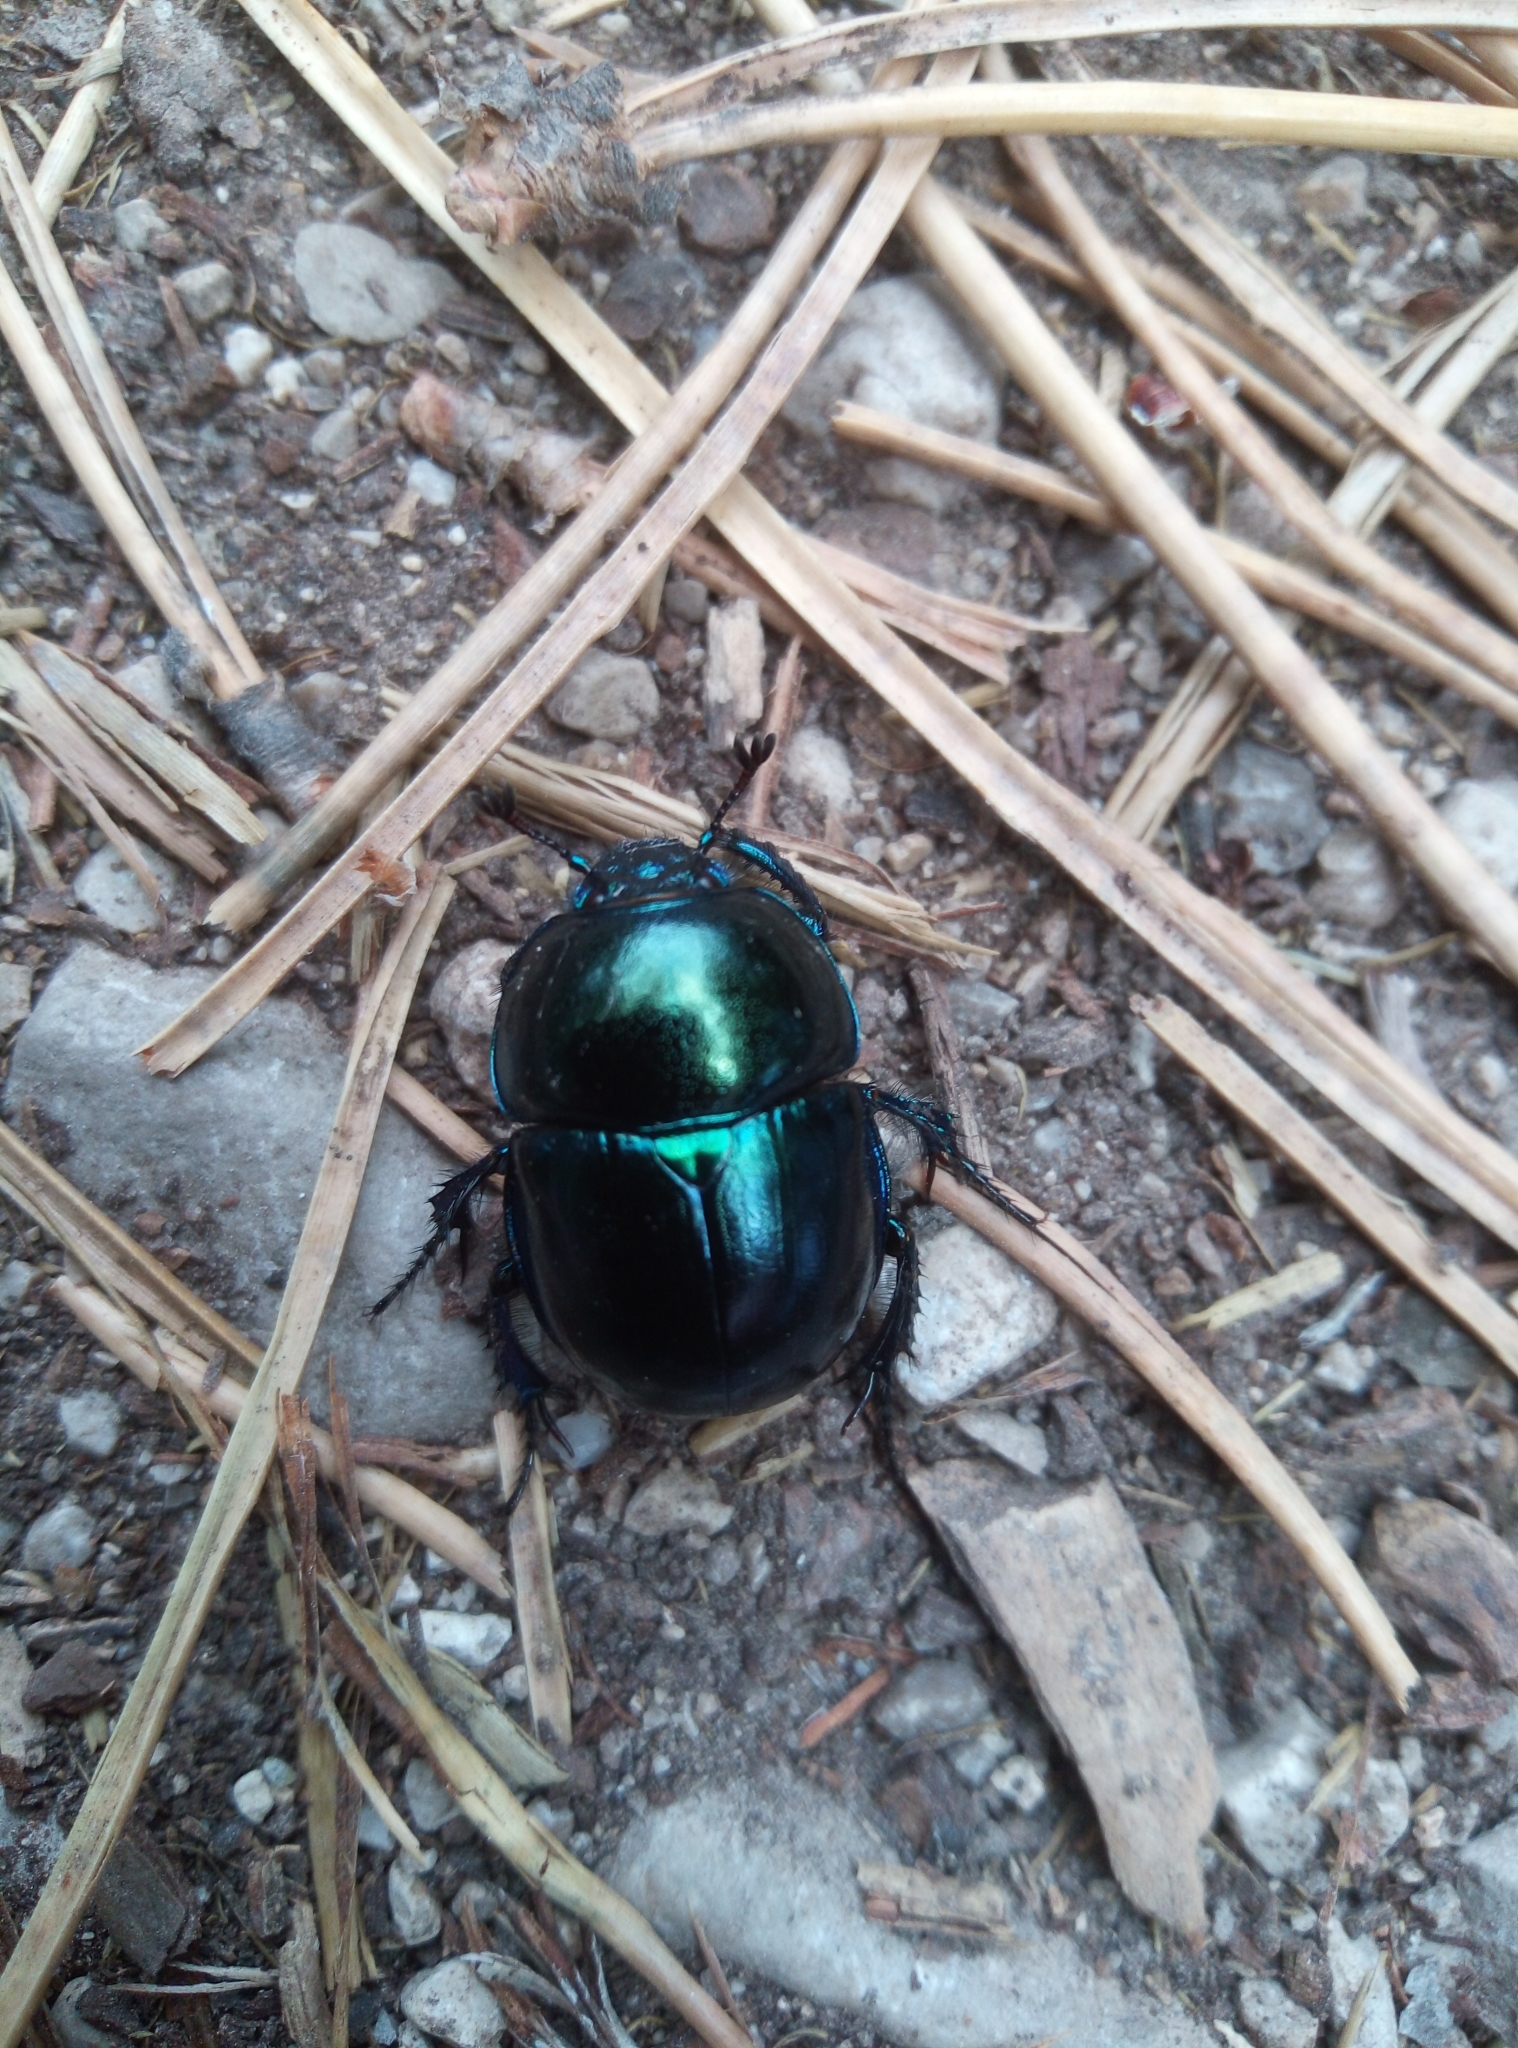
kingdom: Animalia
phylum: Arthropoda
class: Insecta
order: Coleoptera
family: Geotrupidae
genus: Trypocopris
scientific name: Trypocopris vernalis
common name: Spring dumbledor
